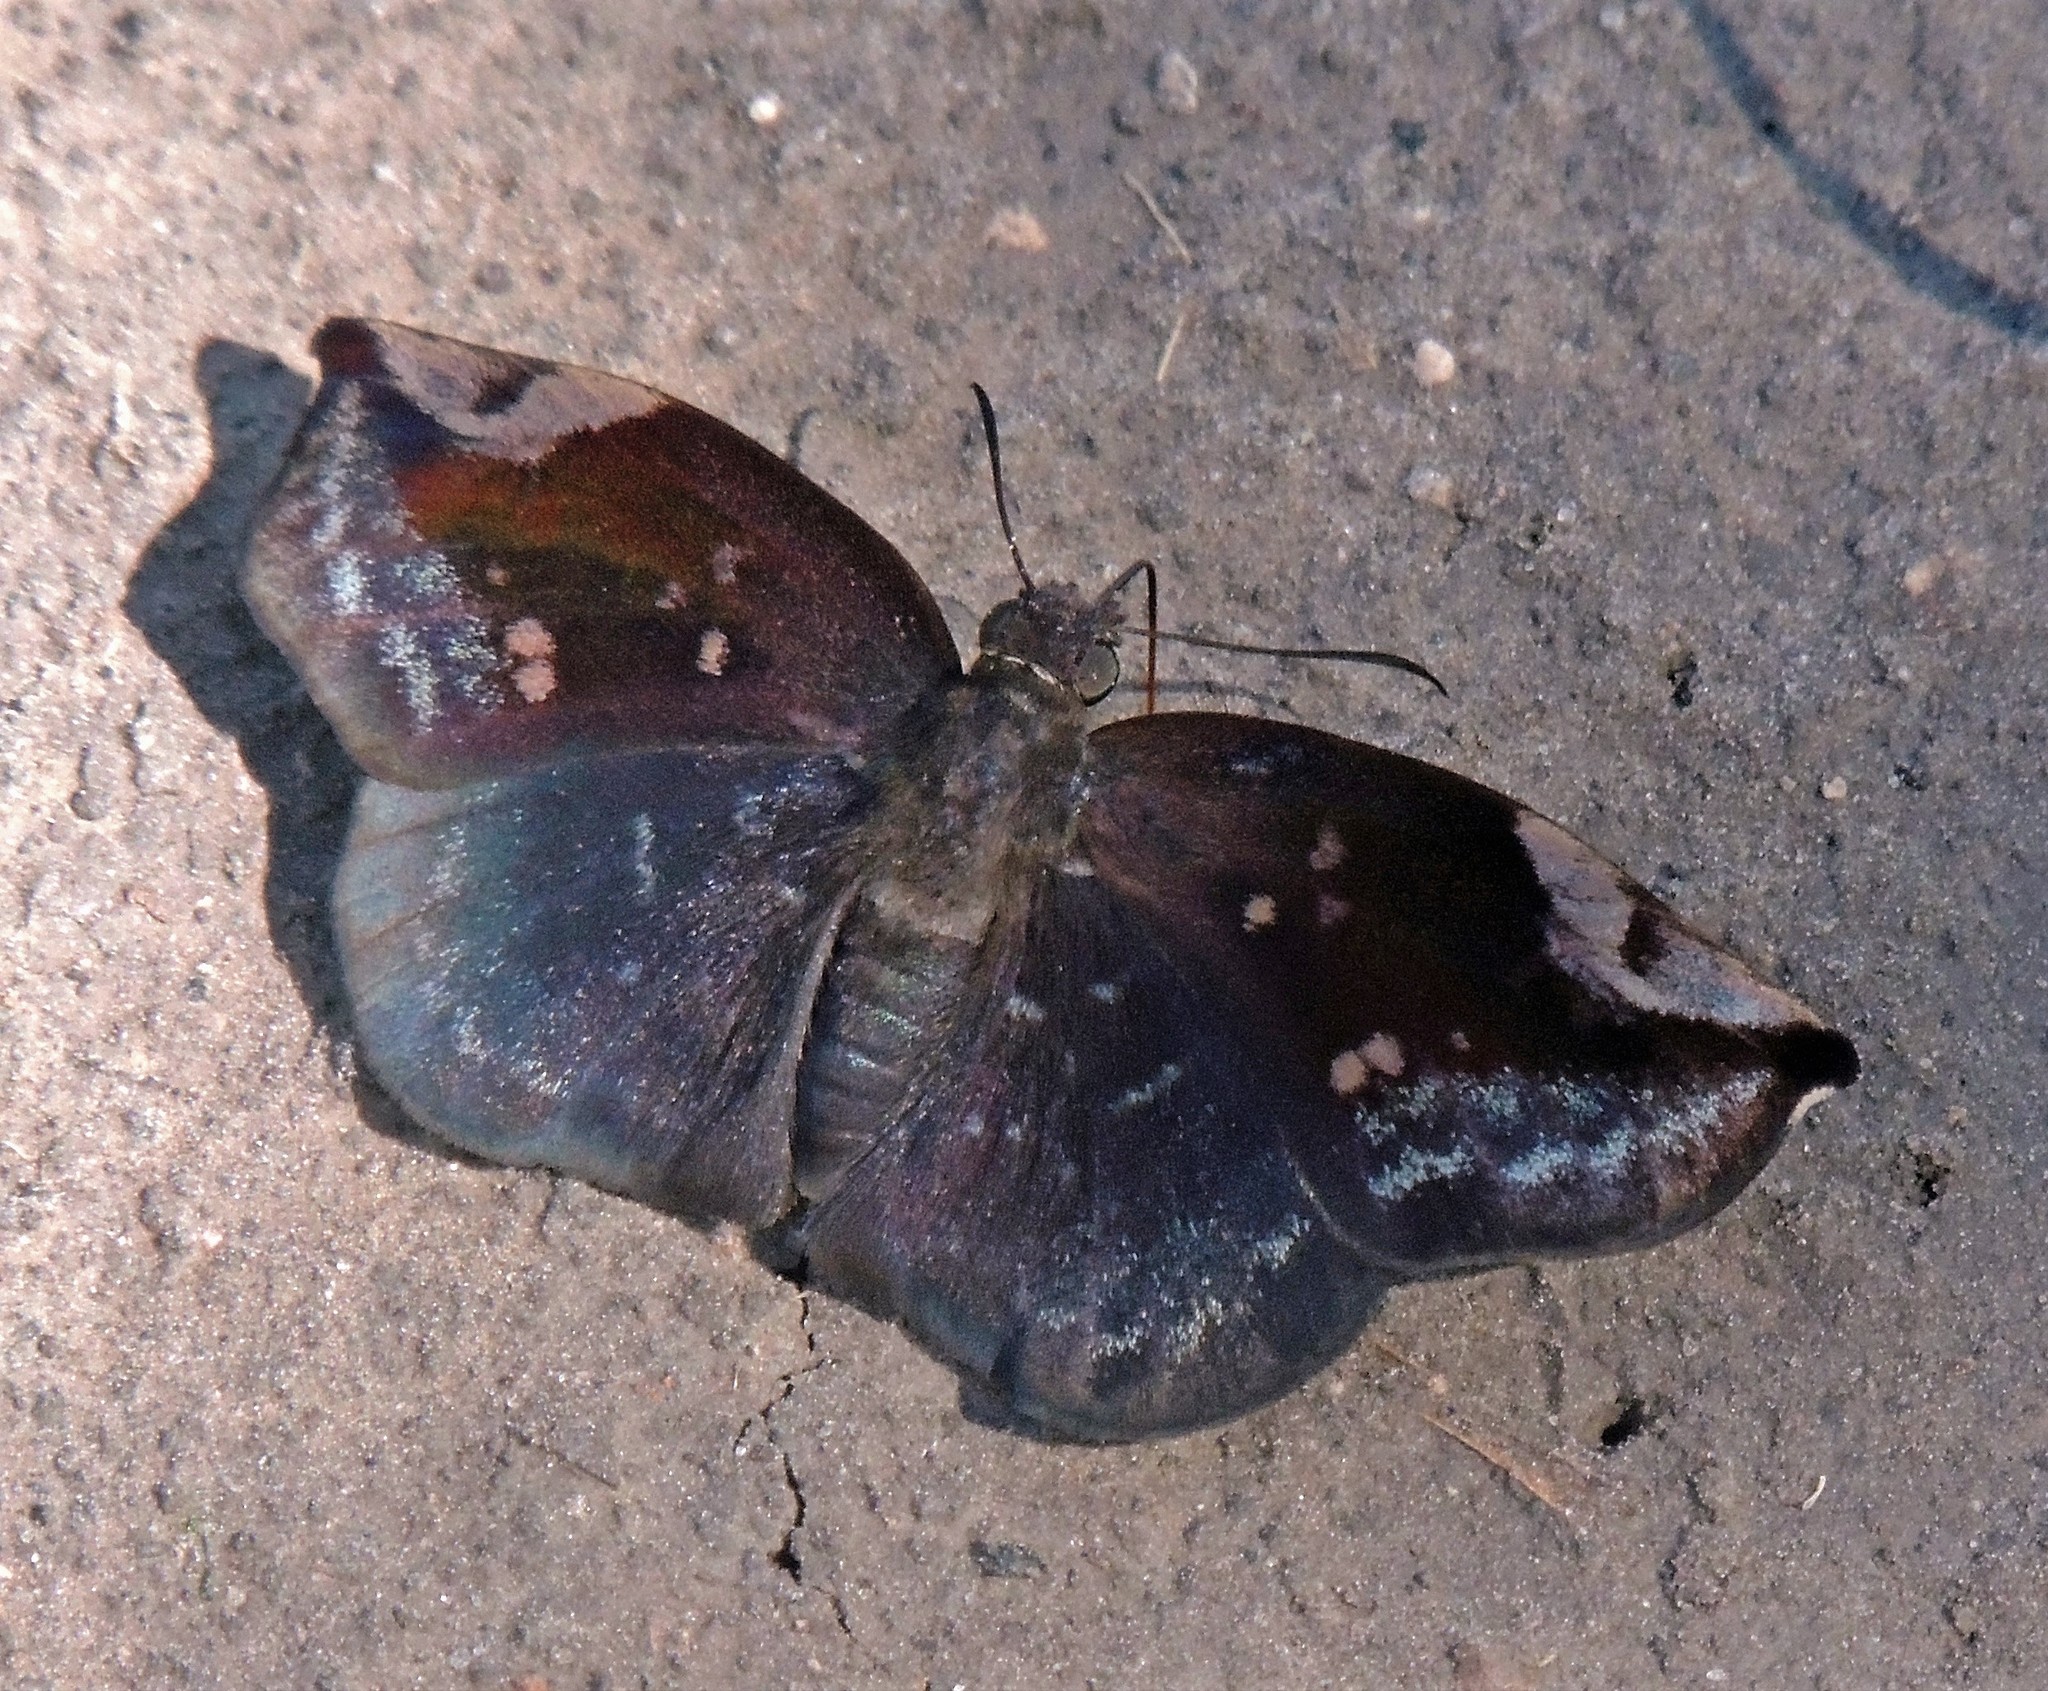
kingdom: Animalia
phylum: Arthropoda
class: Insecta
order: Lepidoptera
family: Hesperiidae
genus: Achlyodes
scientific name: Achlyodes thraso
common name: Sickle-winged skipper
